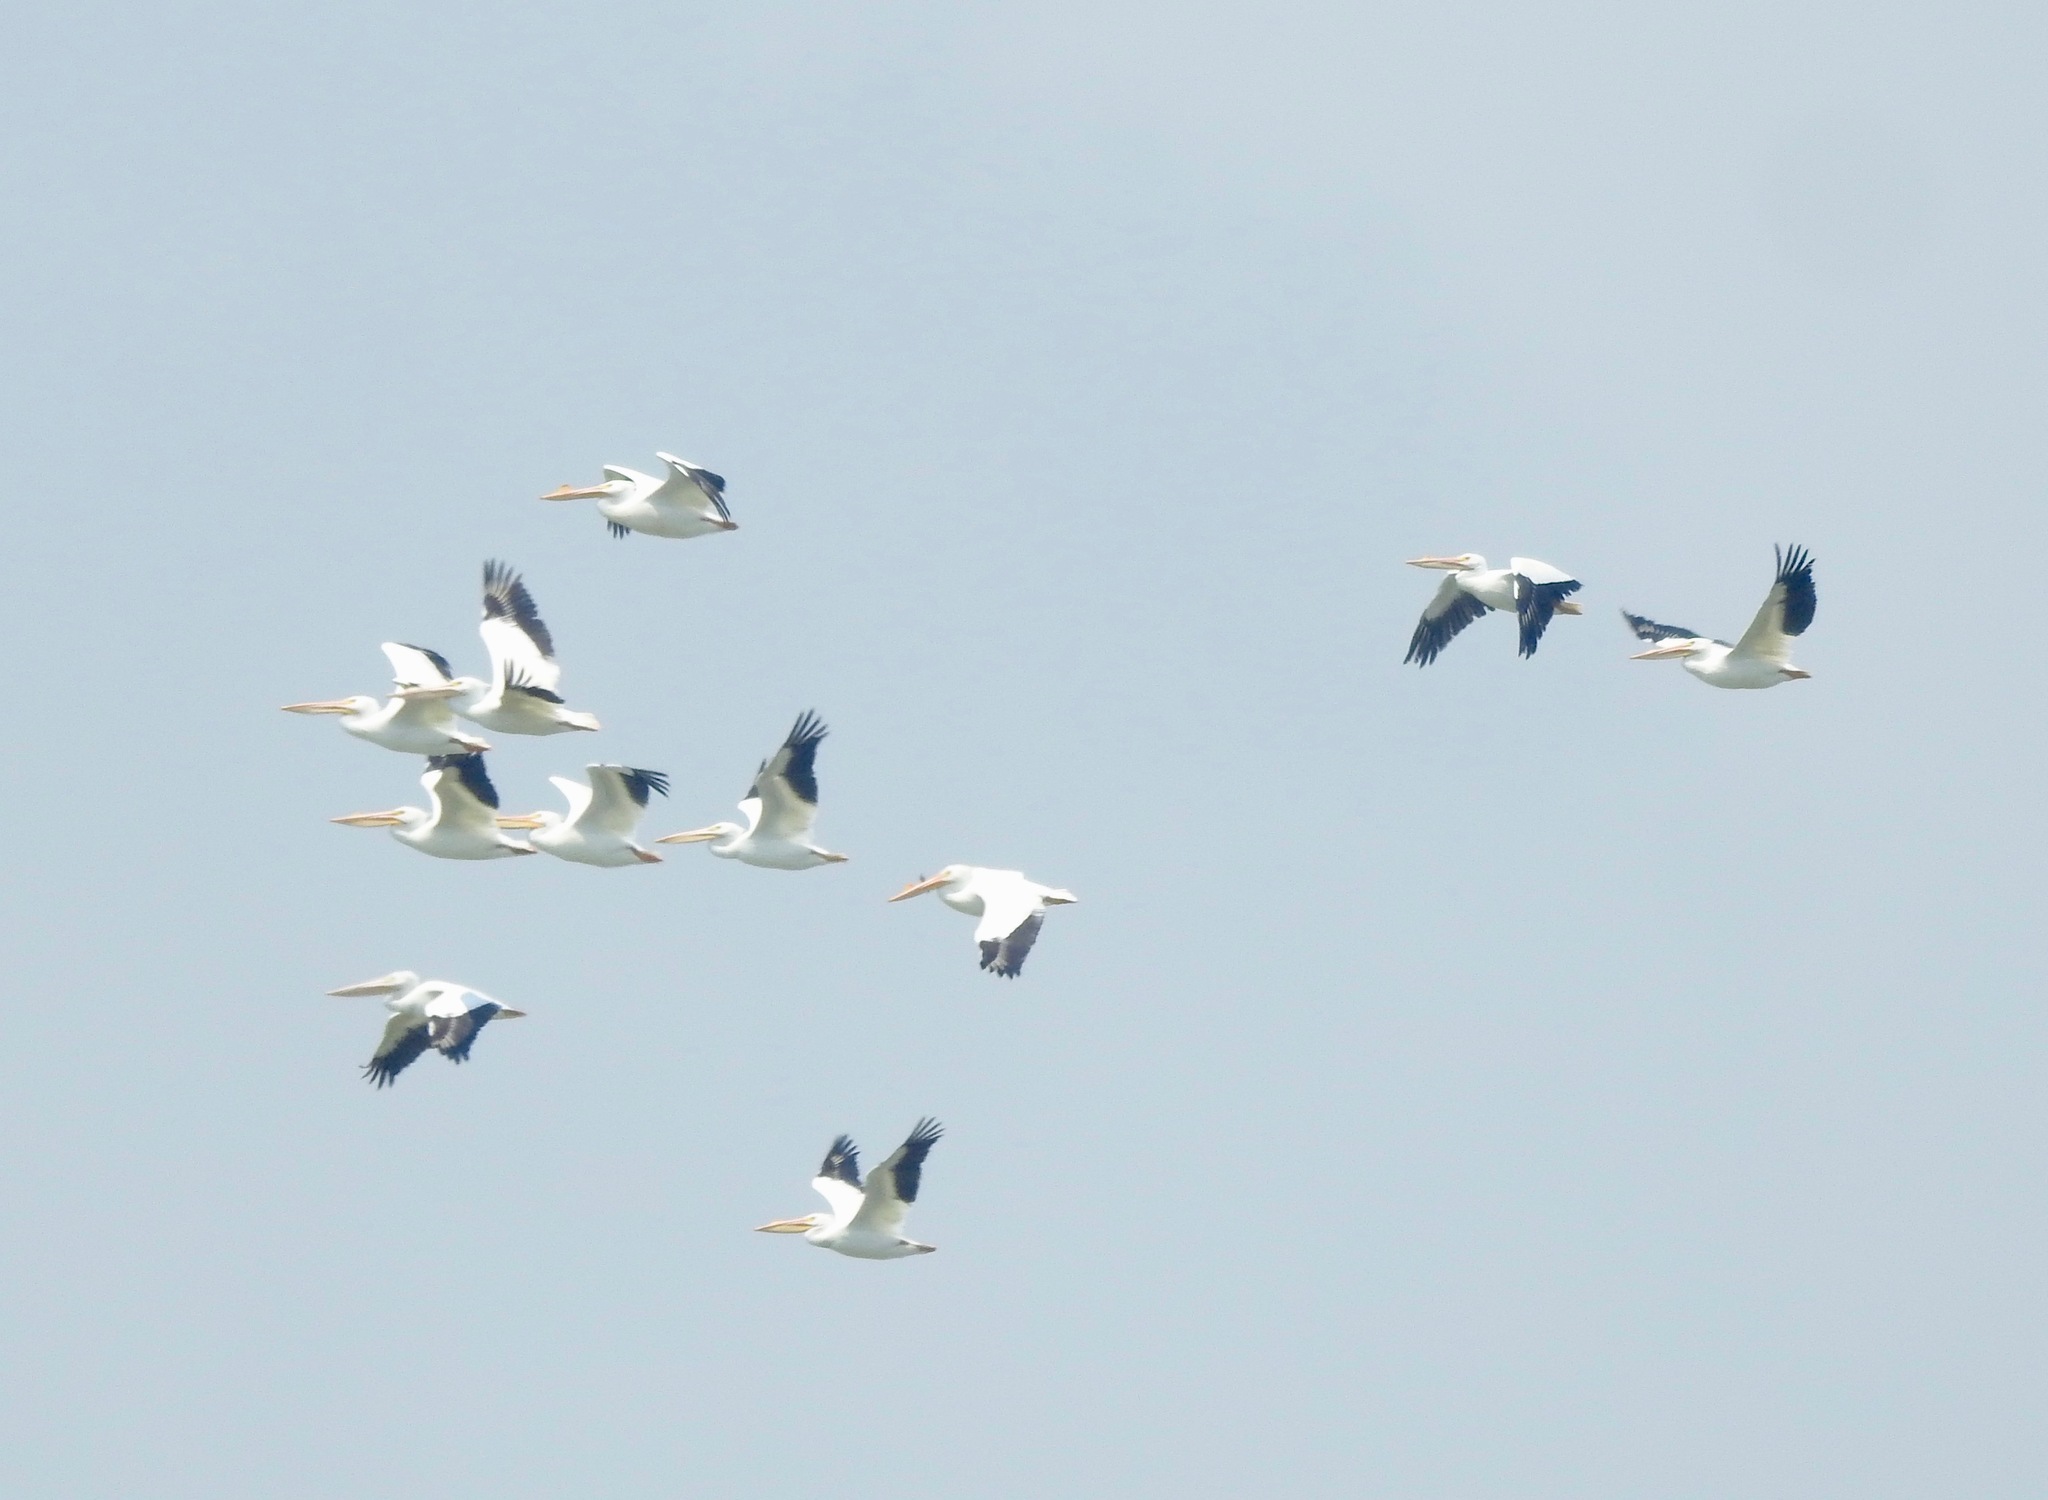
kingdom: Animalia
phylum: Chordata
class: Aves
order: Pelecaniformes
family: Pelecanidae
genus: Pelecanus
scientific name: Pelecanus erythrorhynchos
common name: American white pelican
